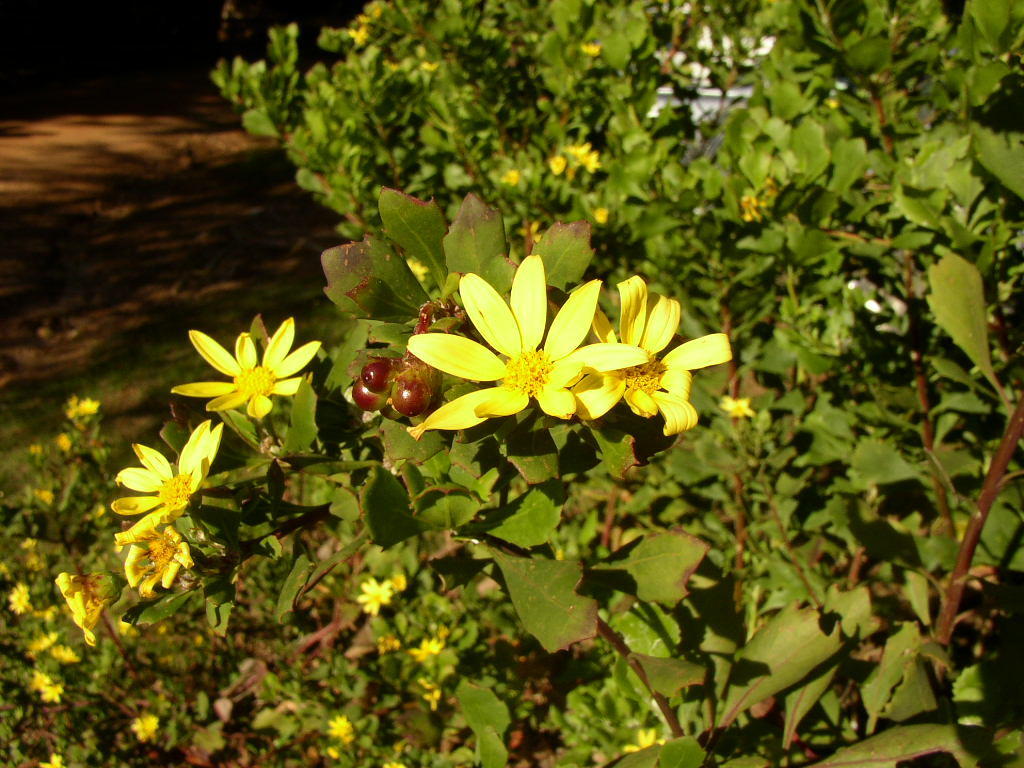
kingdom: Plantae
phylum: Tracheophyta
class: Magnoliopsida
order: Asterales
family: Asteraceae
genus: Osteospermum
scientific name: Osteospermum moniliferum
